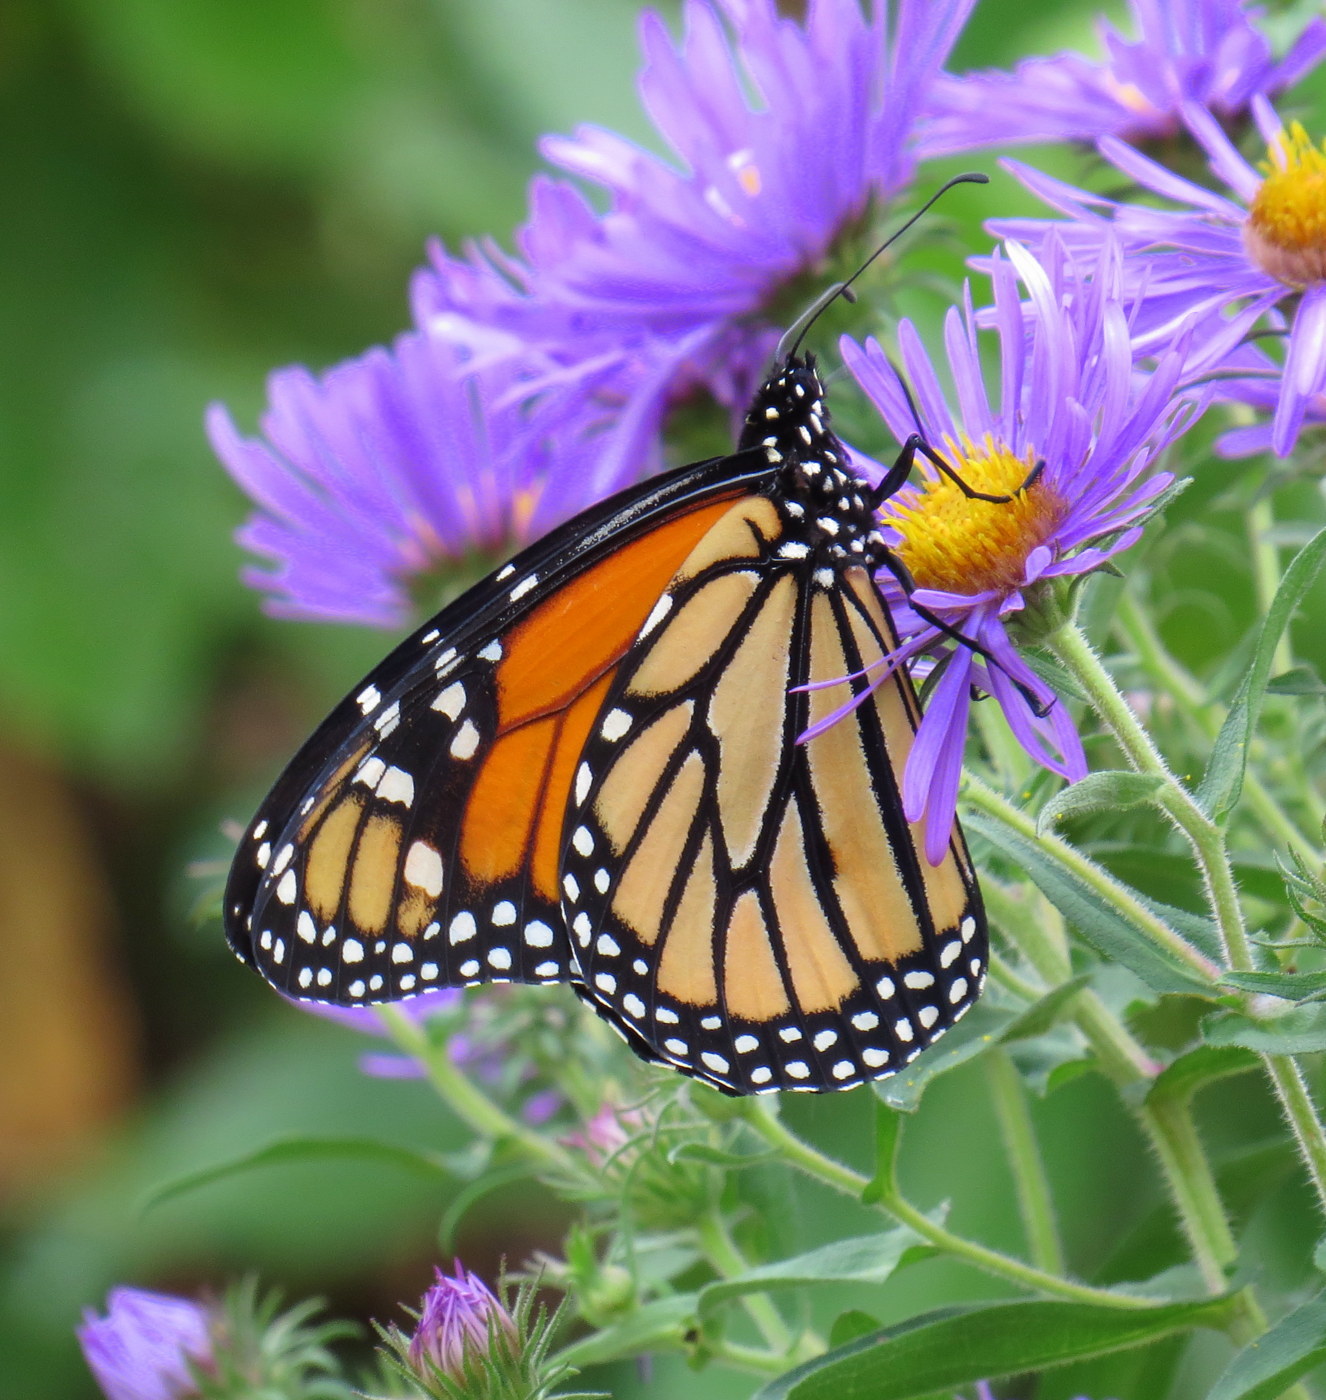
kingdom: Animalia
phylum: Arthropoda
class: Insecta
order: Lepidoptera
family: Nymphalidae
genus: Danaus
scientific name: Danaus plexippus
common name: Monarch
